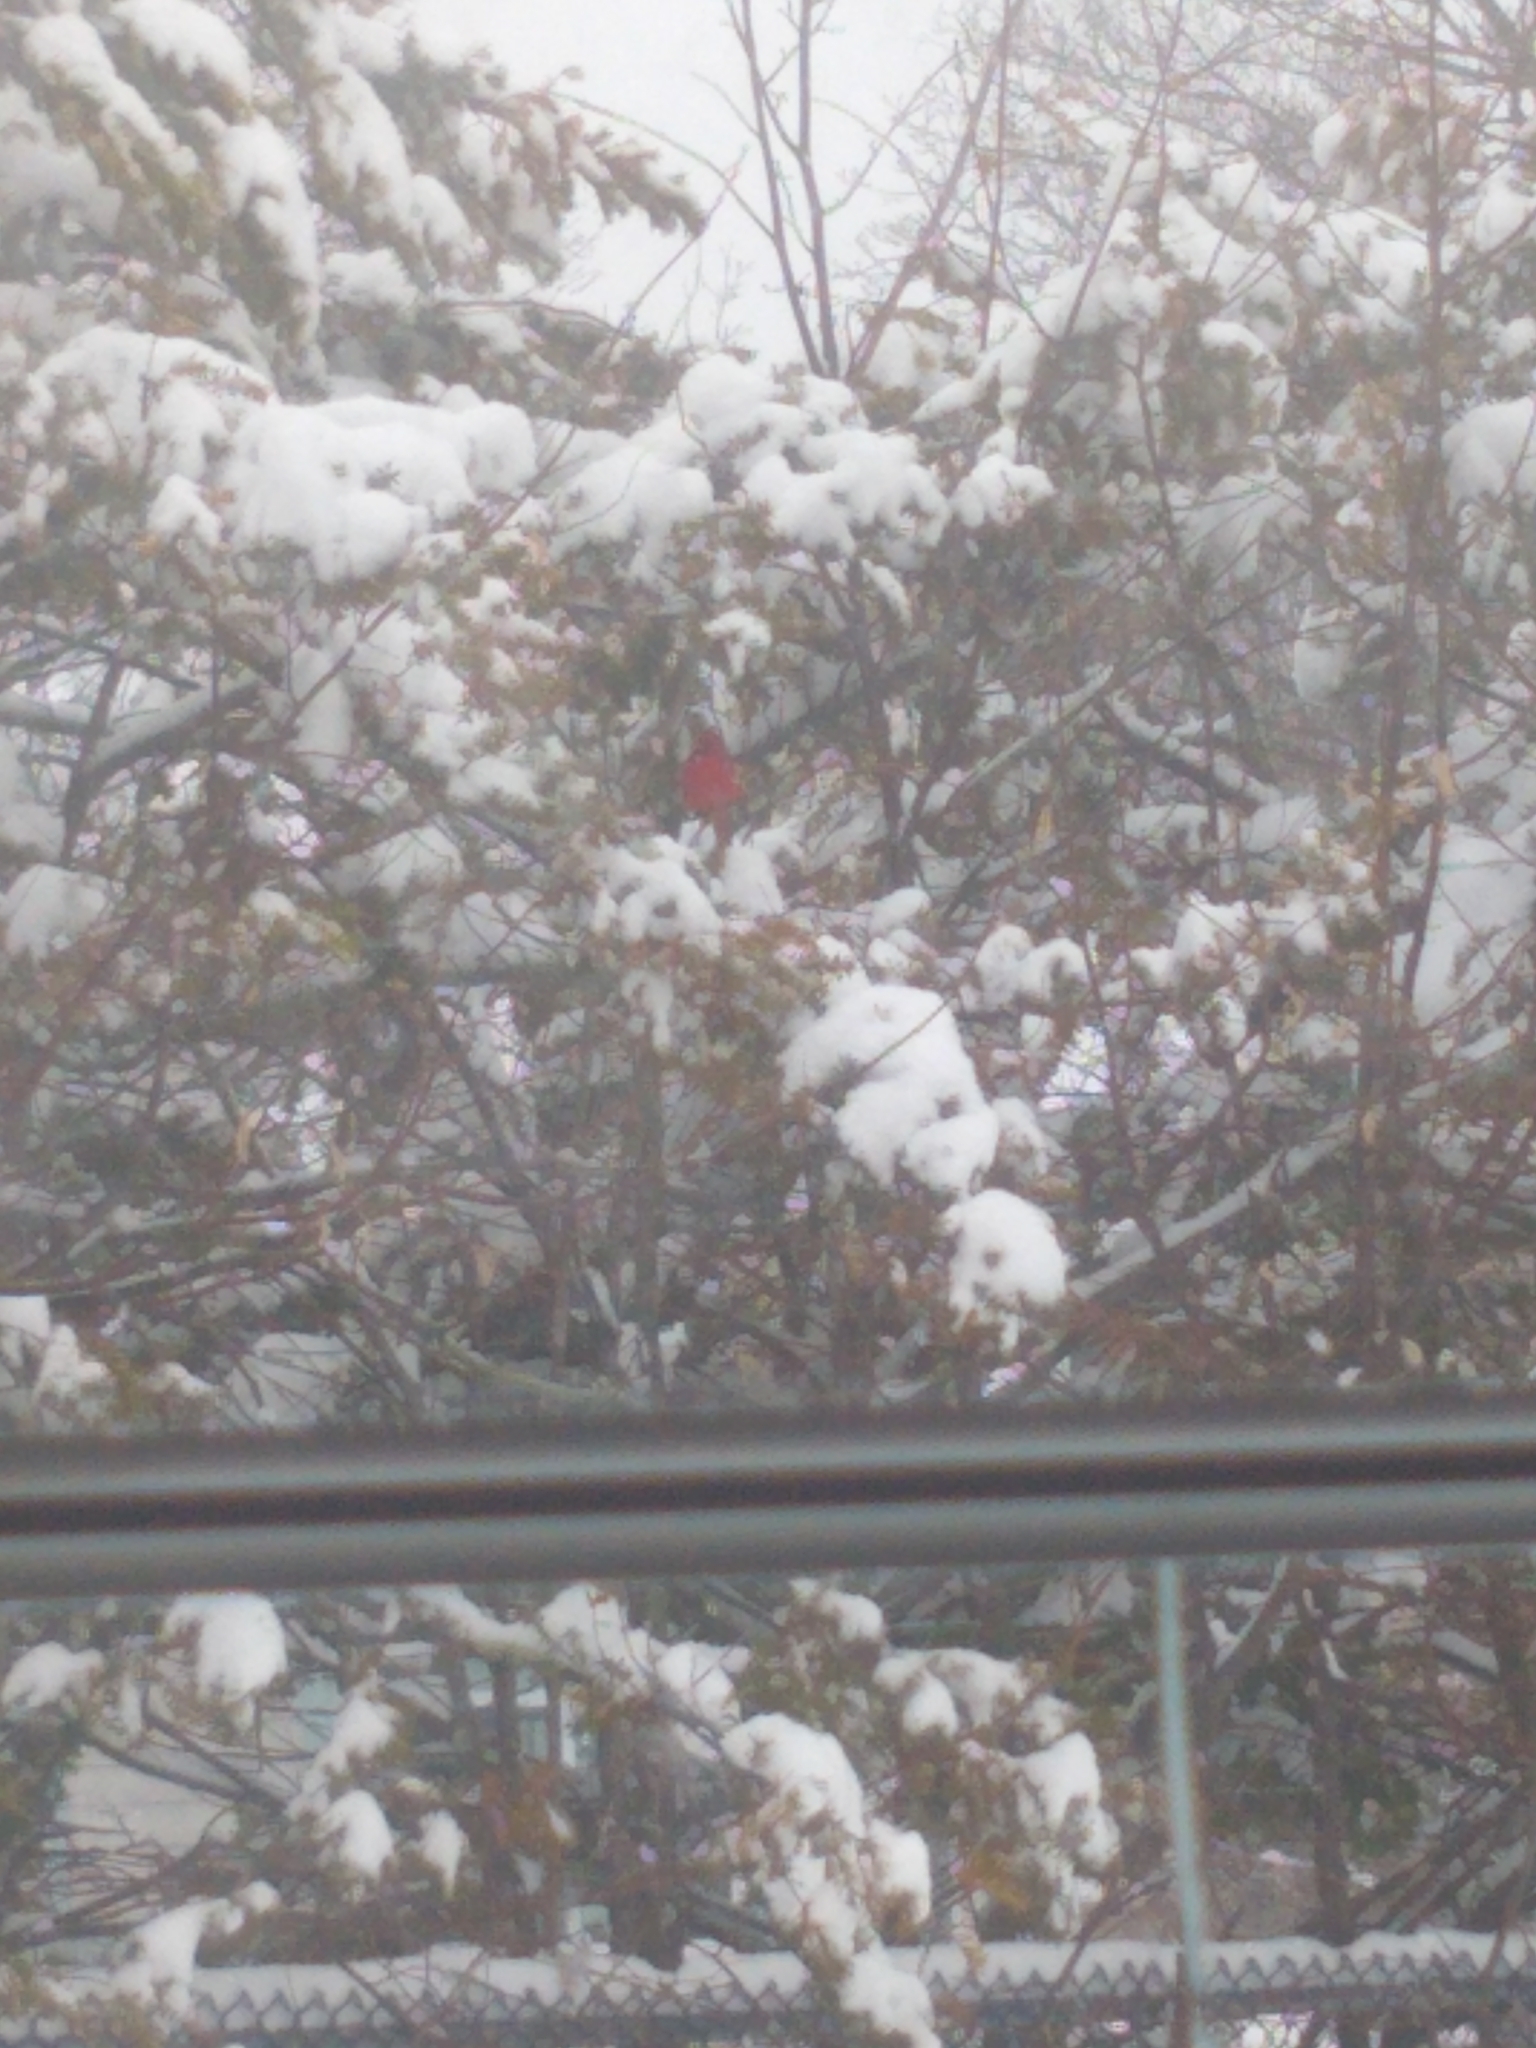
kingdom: Animalia
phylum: Chordata
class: Aves
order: Passeriformes
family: Cardinalidae
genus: Cardinalis
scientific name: Cardinalis cardinalis
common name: Northern cardinal
